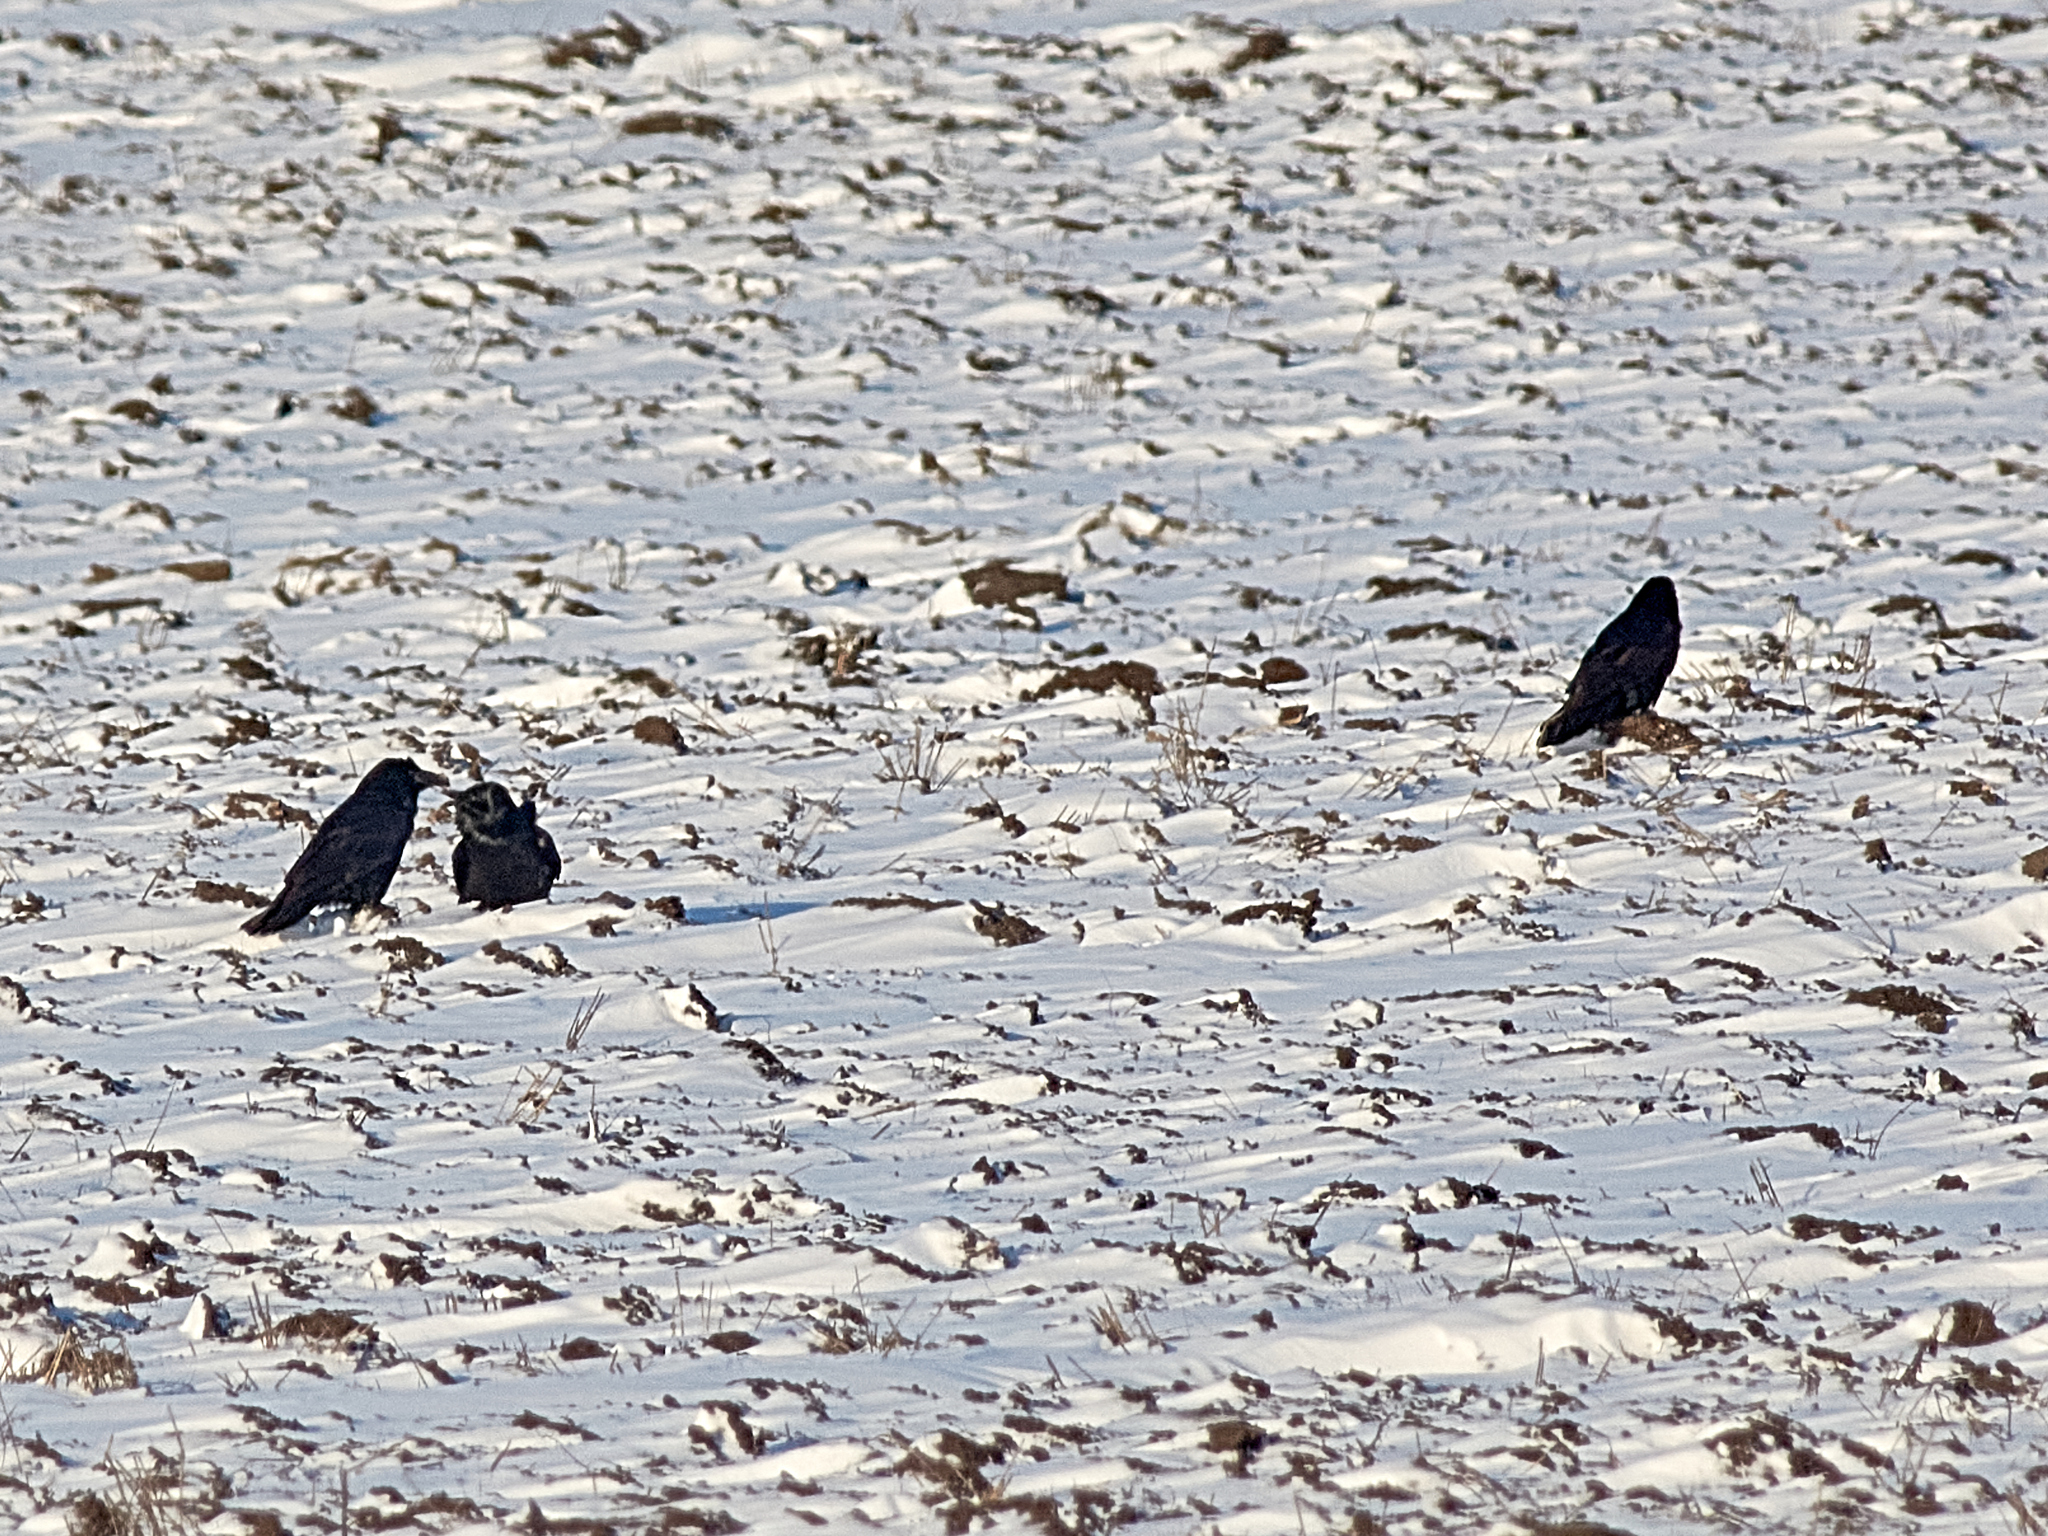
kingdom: Animalia
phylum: Chordata
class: Aves
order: Passeriformes
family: Corvidae
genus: Corvus
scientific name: Corvus corax
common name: Common raven
